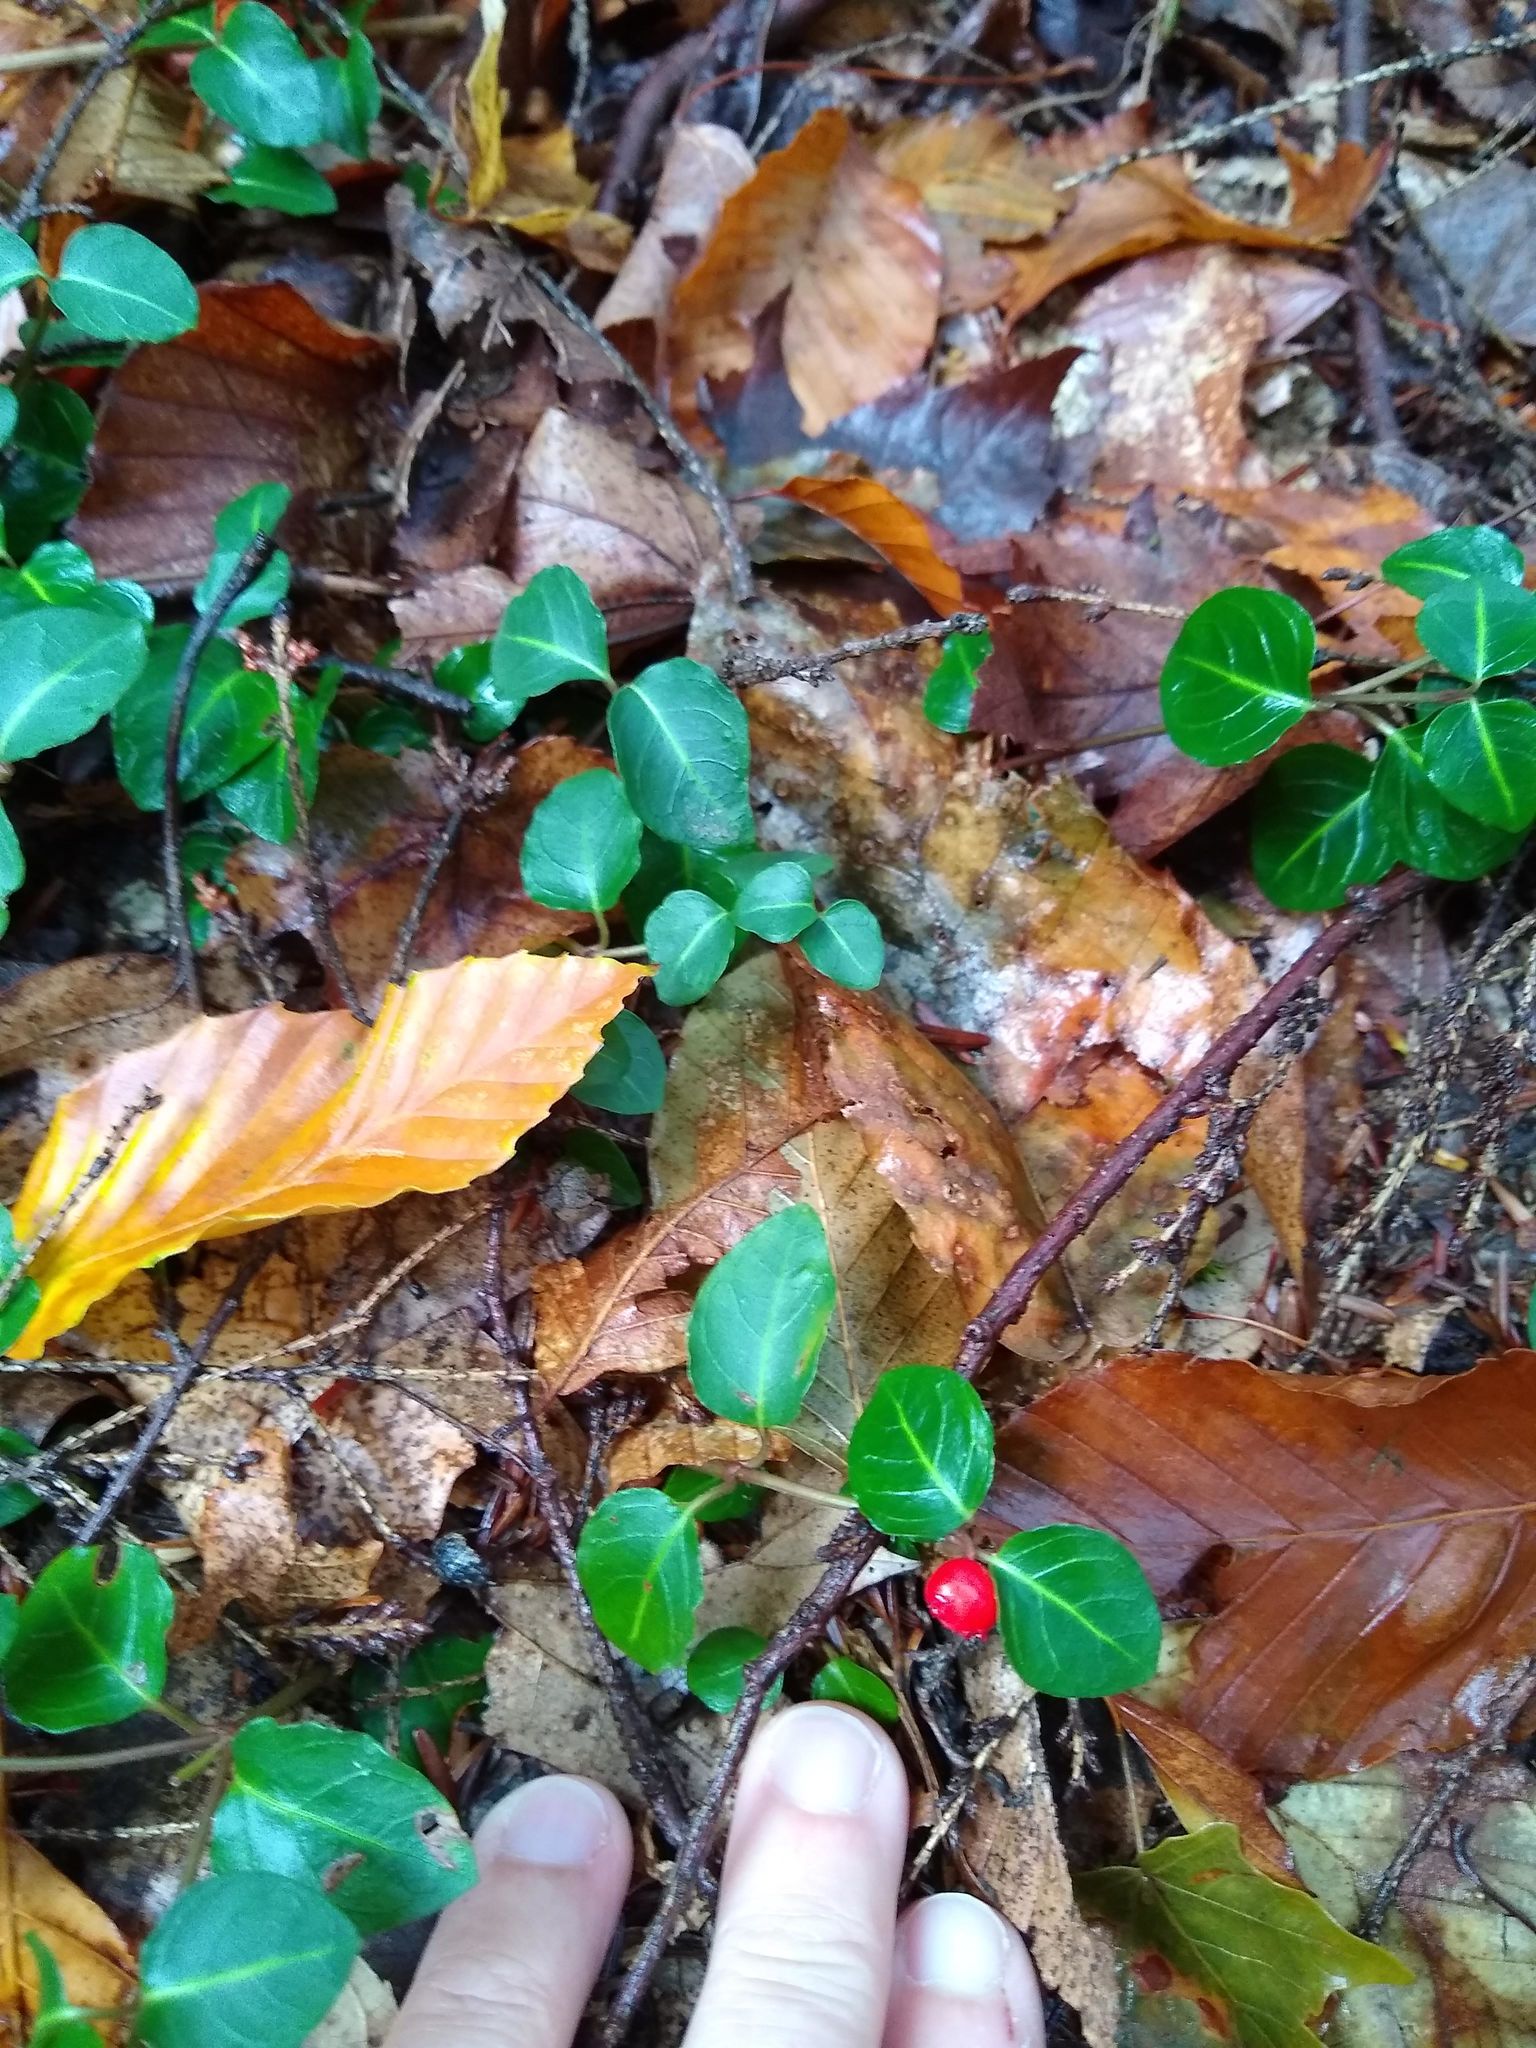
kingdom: Plantae
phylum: Tracheophyta
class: Magnoliopsida
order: Gentianales
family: Rubiaceae
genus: Mitchella
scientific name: Mitchella repens
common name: Partridge-berry
